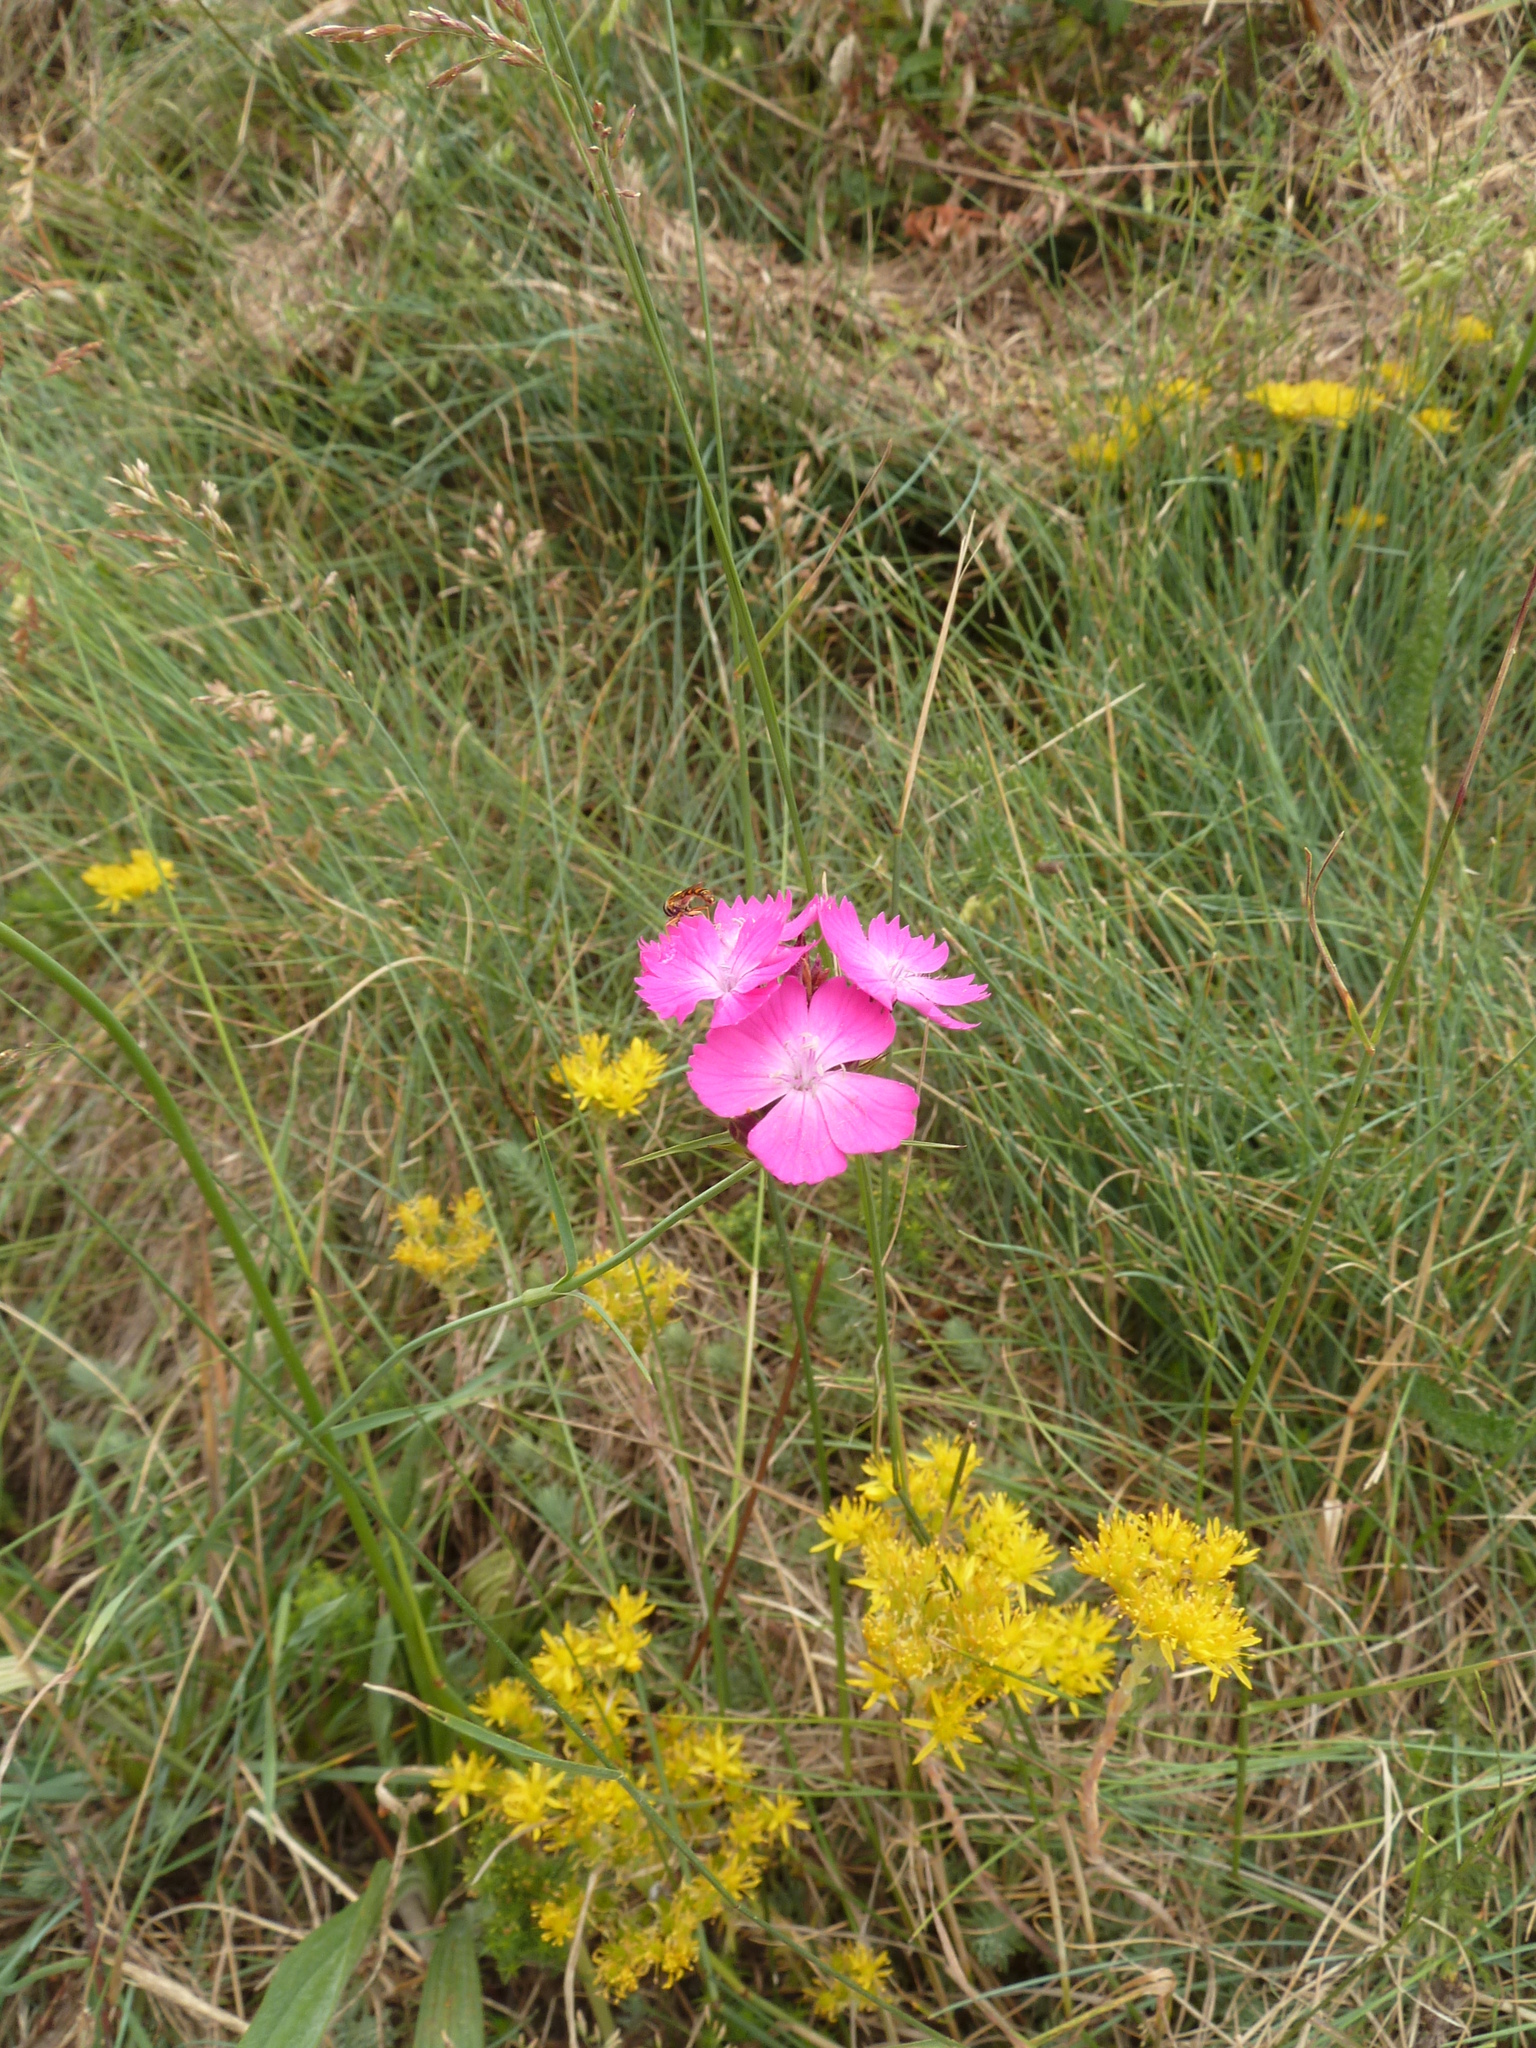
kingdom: Plantae
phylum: Tracheophyta
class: Magnoliopsida
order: Caryophyllales
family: Caryophyllaceae
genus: Dianthus
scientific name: Dianthus carthusianorum
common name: Carthusian pink
